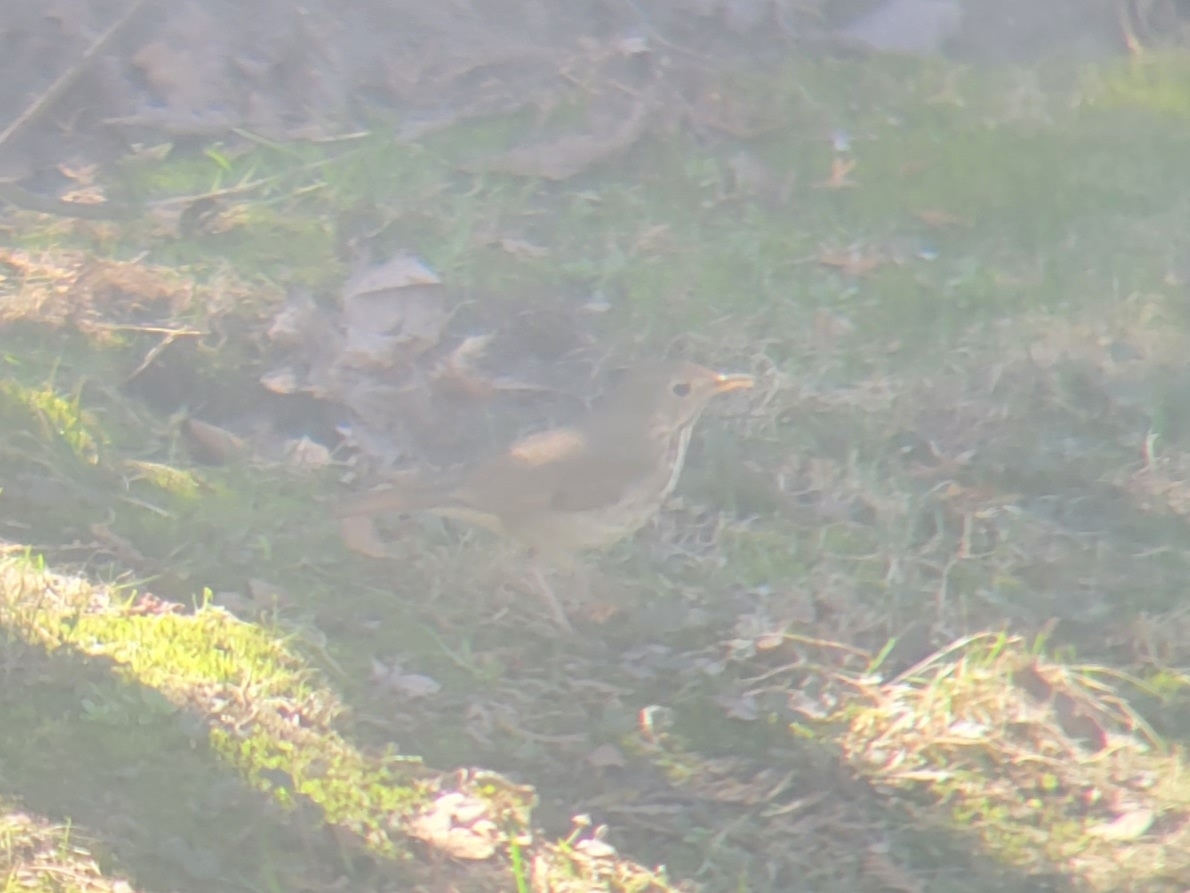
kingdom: Animalia
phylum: Chordata
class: Aves
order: Passeriformes
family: Turdidae
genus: Catharus
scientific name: Catharus guttatus
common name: Hermit thrush
